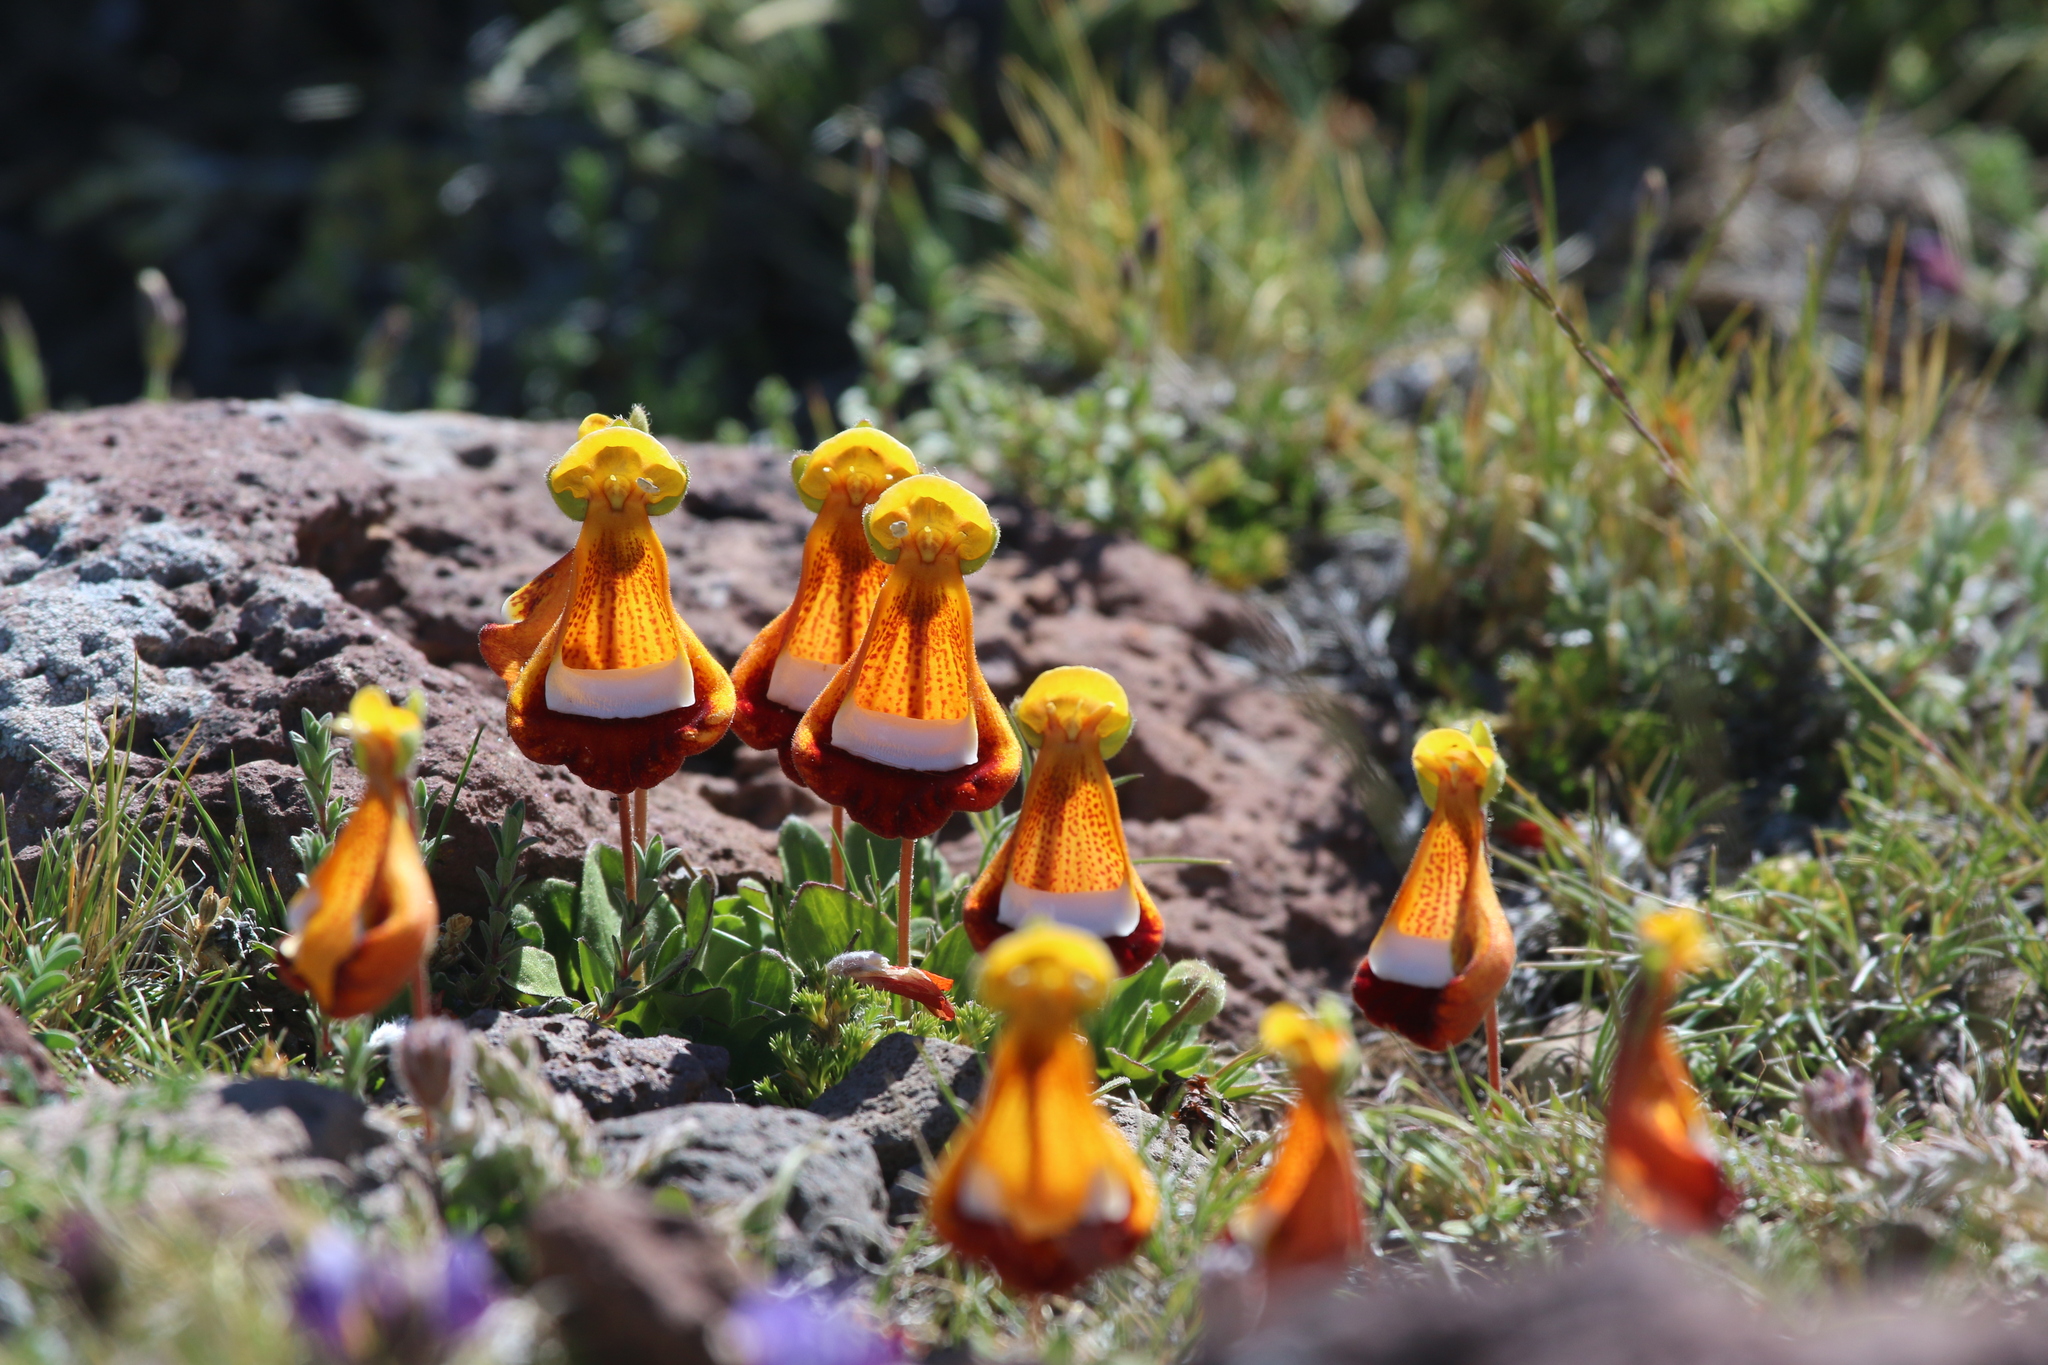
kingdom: Plantae
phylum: Tracheophyta
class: Magnoliopsida
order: Lamiales
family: Calceolariaceae
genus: Calceolaria
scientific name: Calceolaria uniflora
